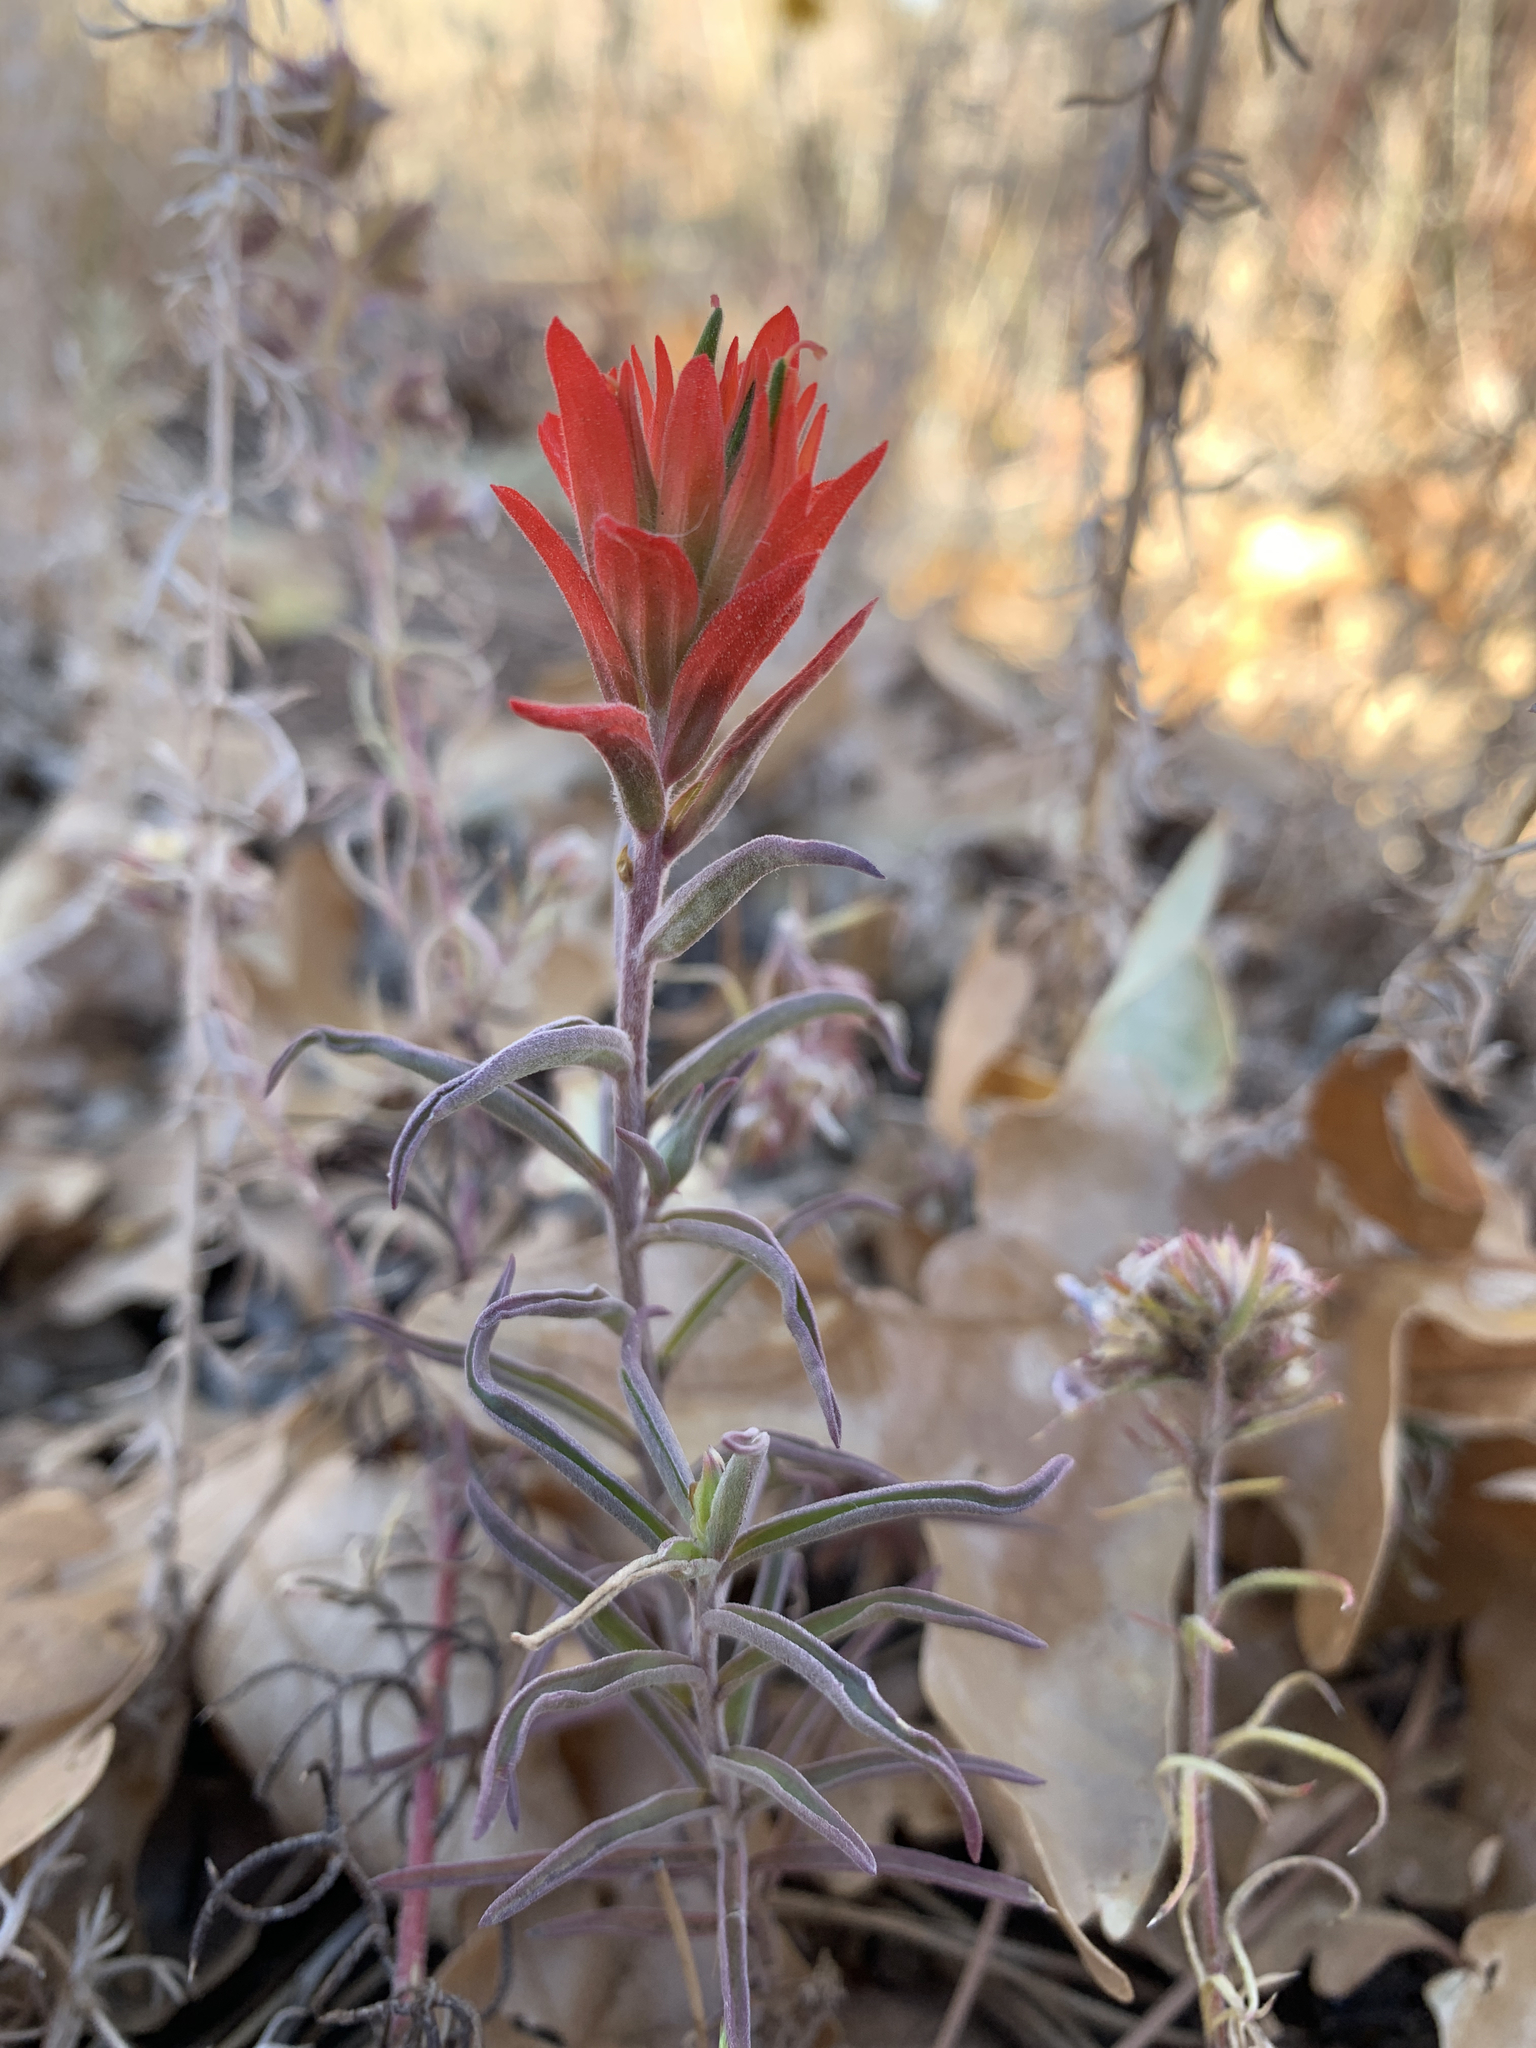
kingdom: Plantae
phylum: Tracheophyta
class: Magnoliopsida
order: Lamiales
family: Orobanchaceae
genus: Castilleja
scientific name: Castilleja integra
